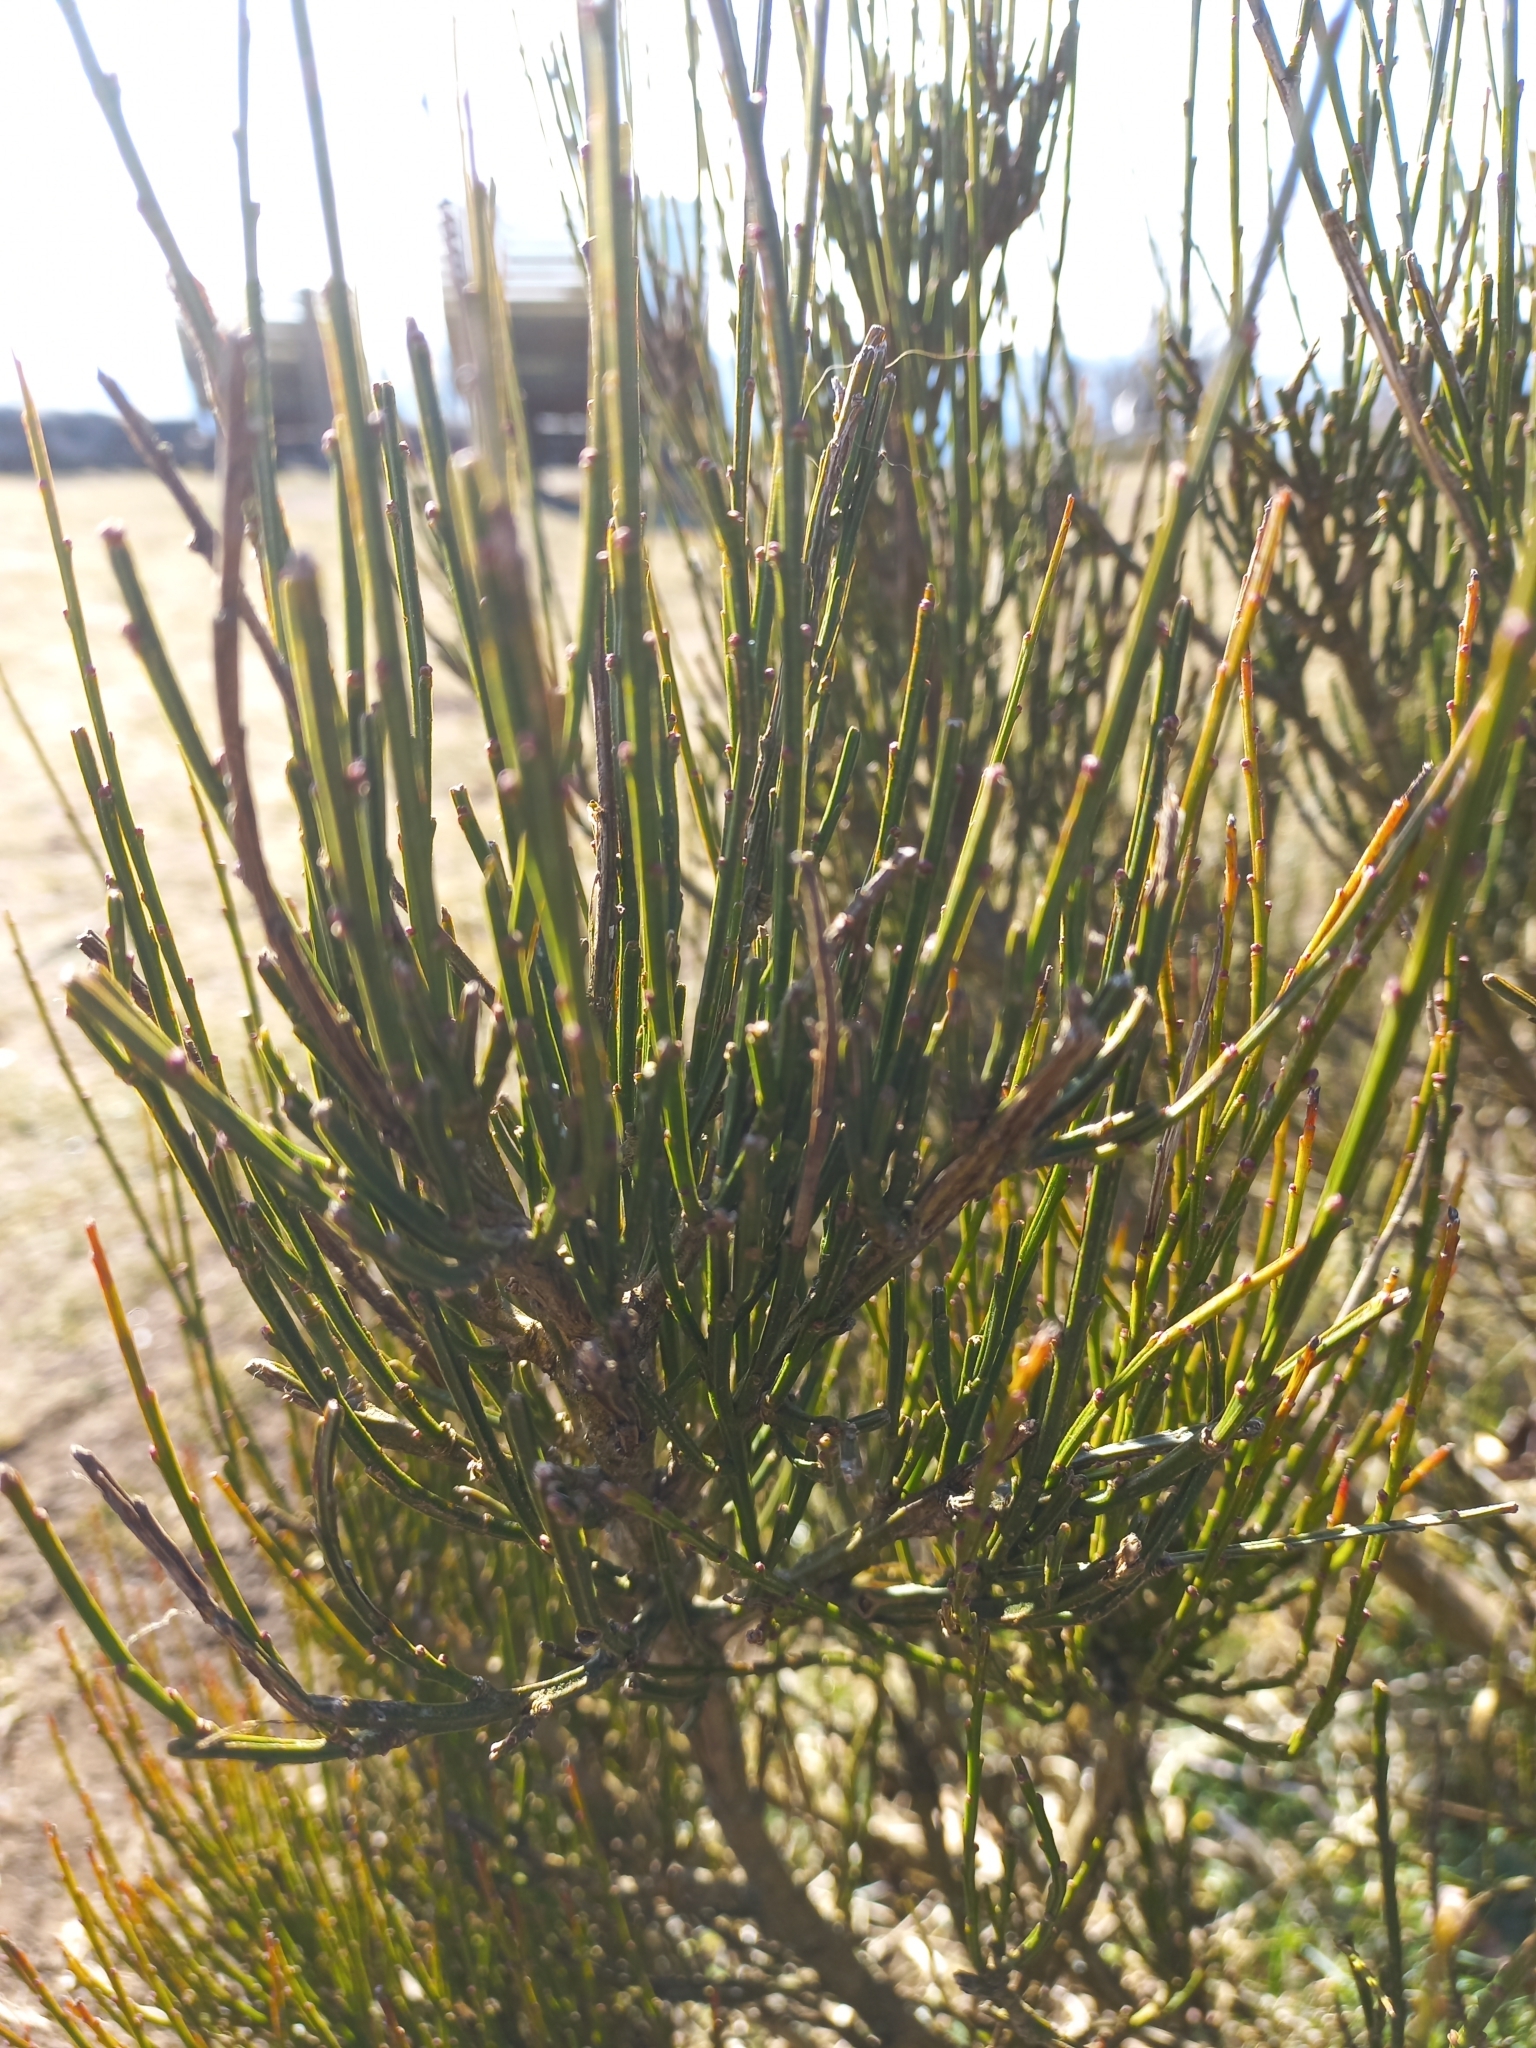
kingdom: Plantae
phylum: Tracheophyta
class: Magnoliopsida
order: Fabales
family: Fabaceae
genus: Cytisus
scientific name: Cytisus scoparius
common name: Scotch broom
